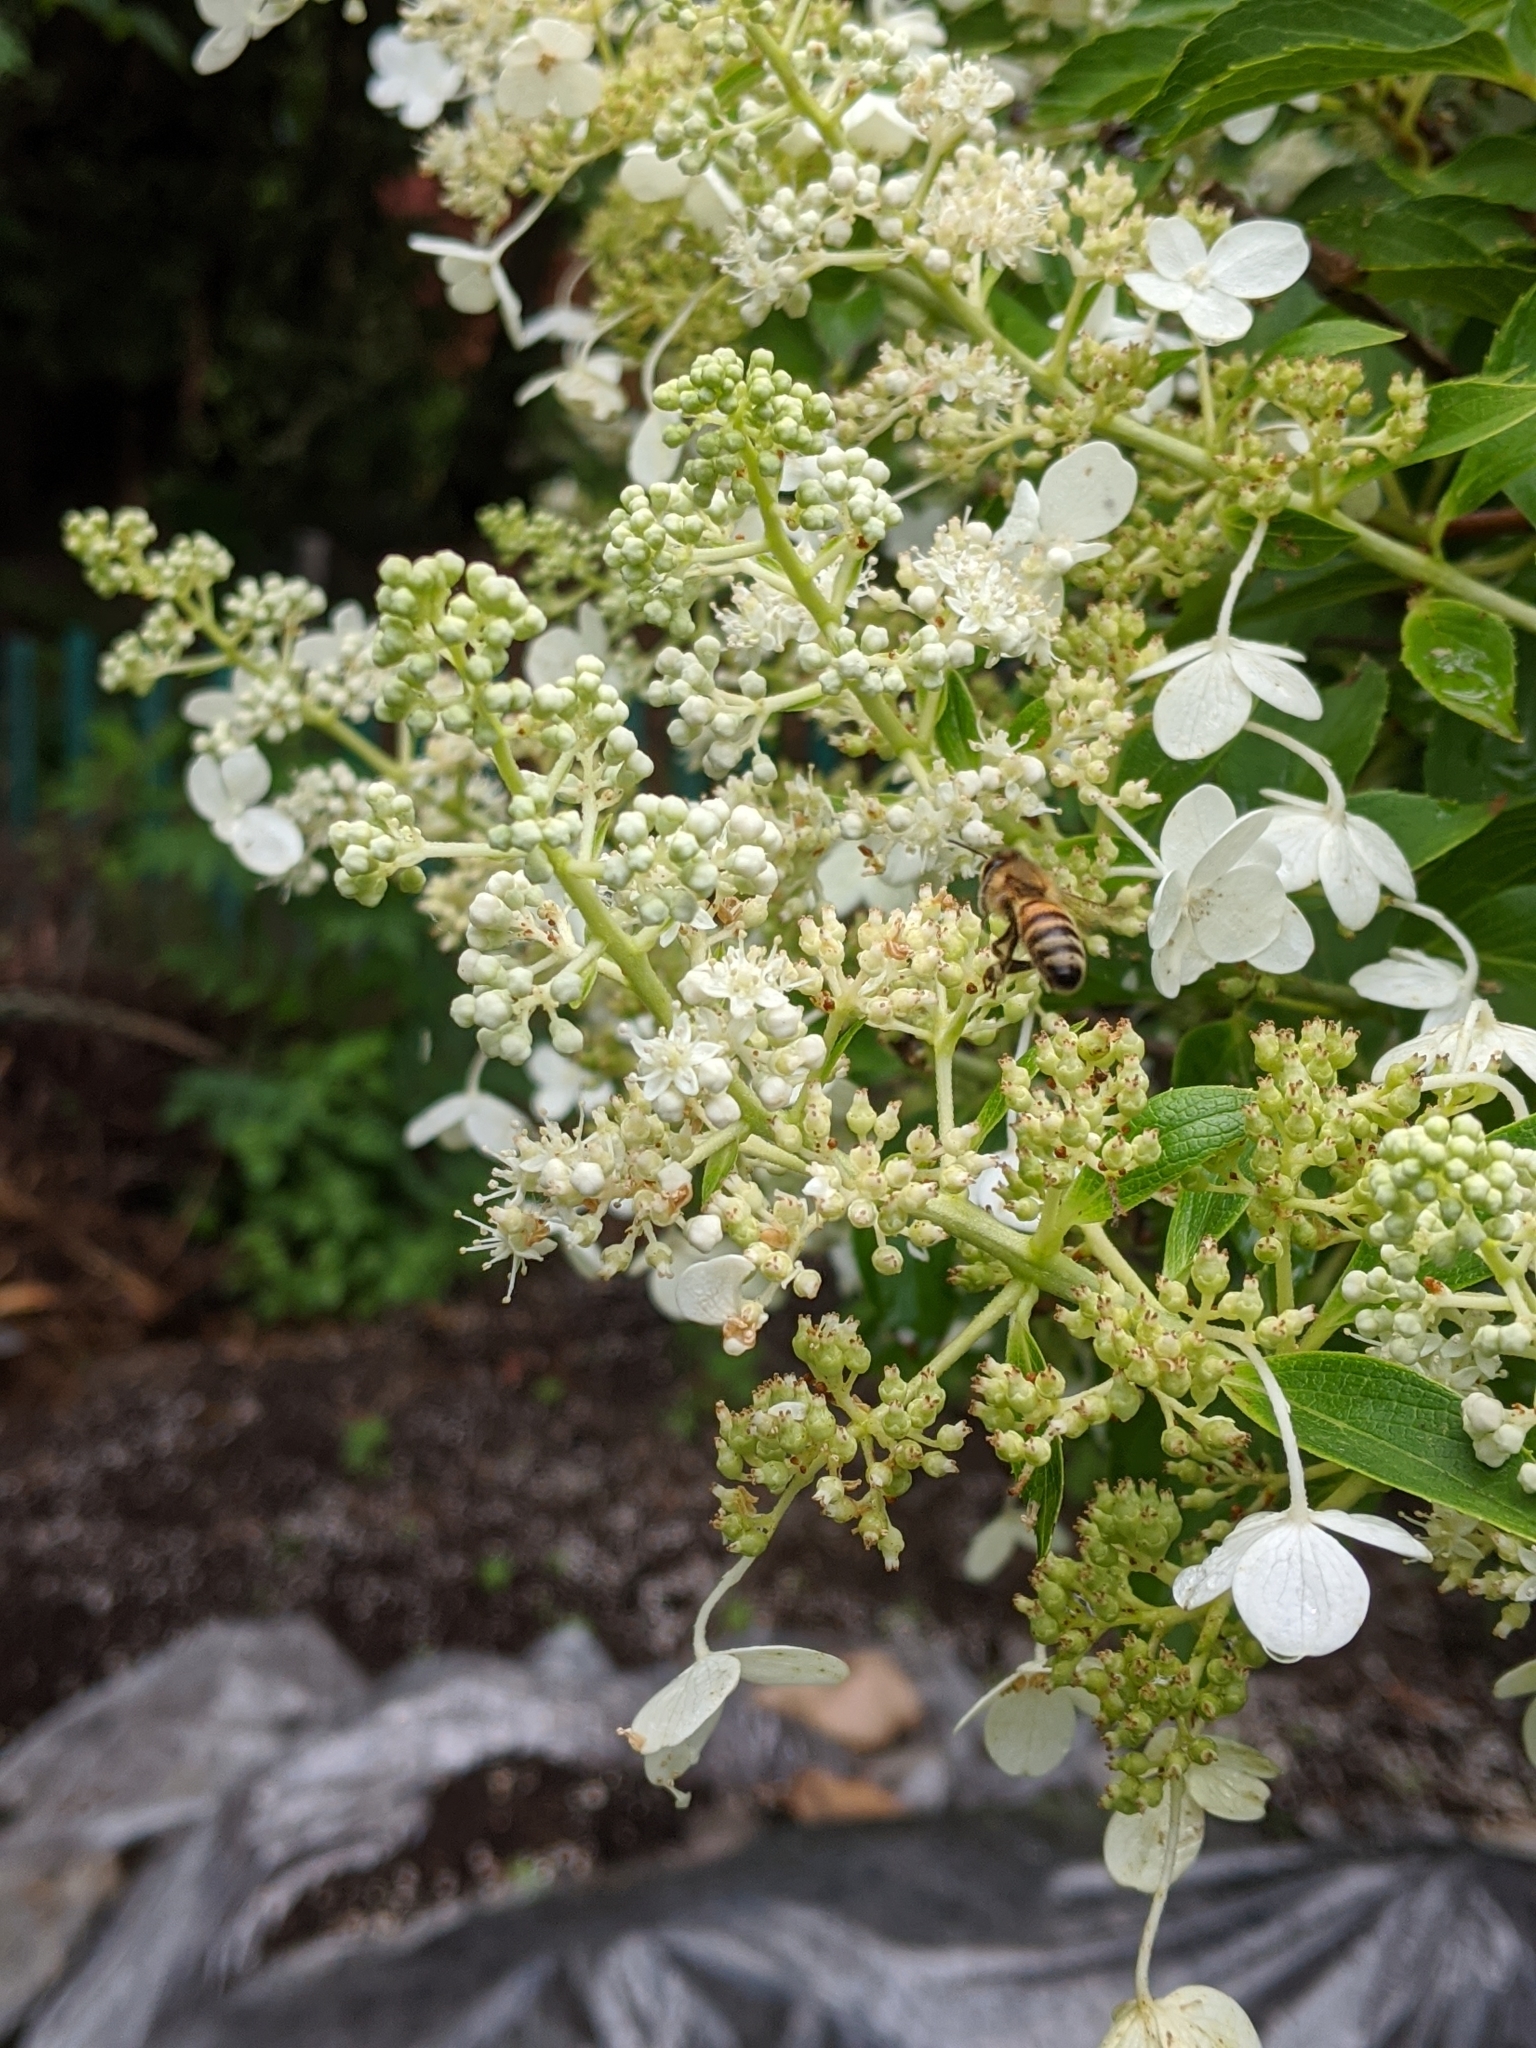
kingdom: Animalia
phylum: Arthropoda
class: Insecta
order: Hymenoptera
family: Apidae
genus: Apis
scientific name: Apis mellifera
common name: Honey bee
